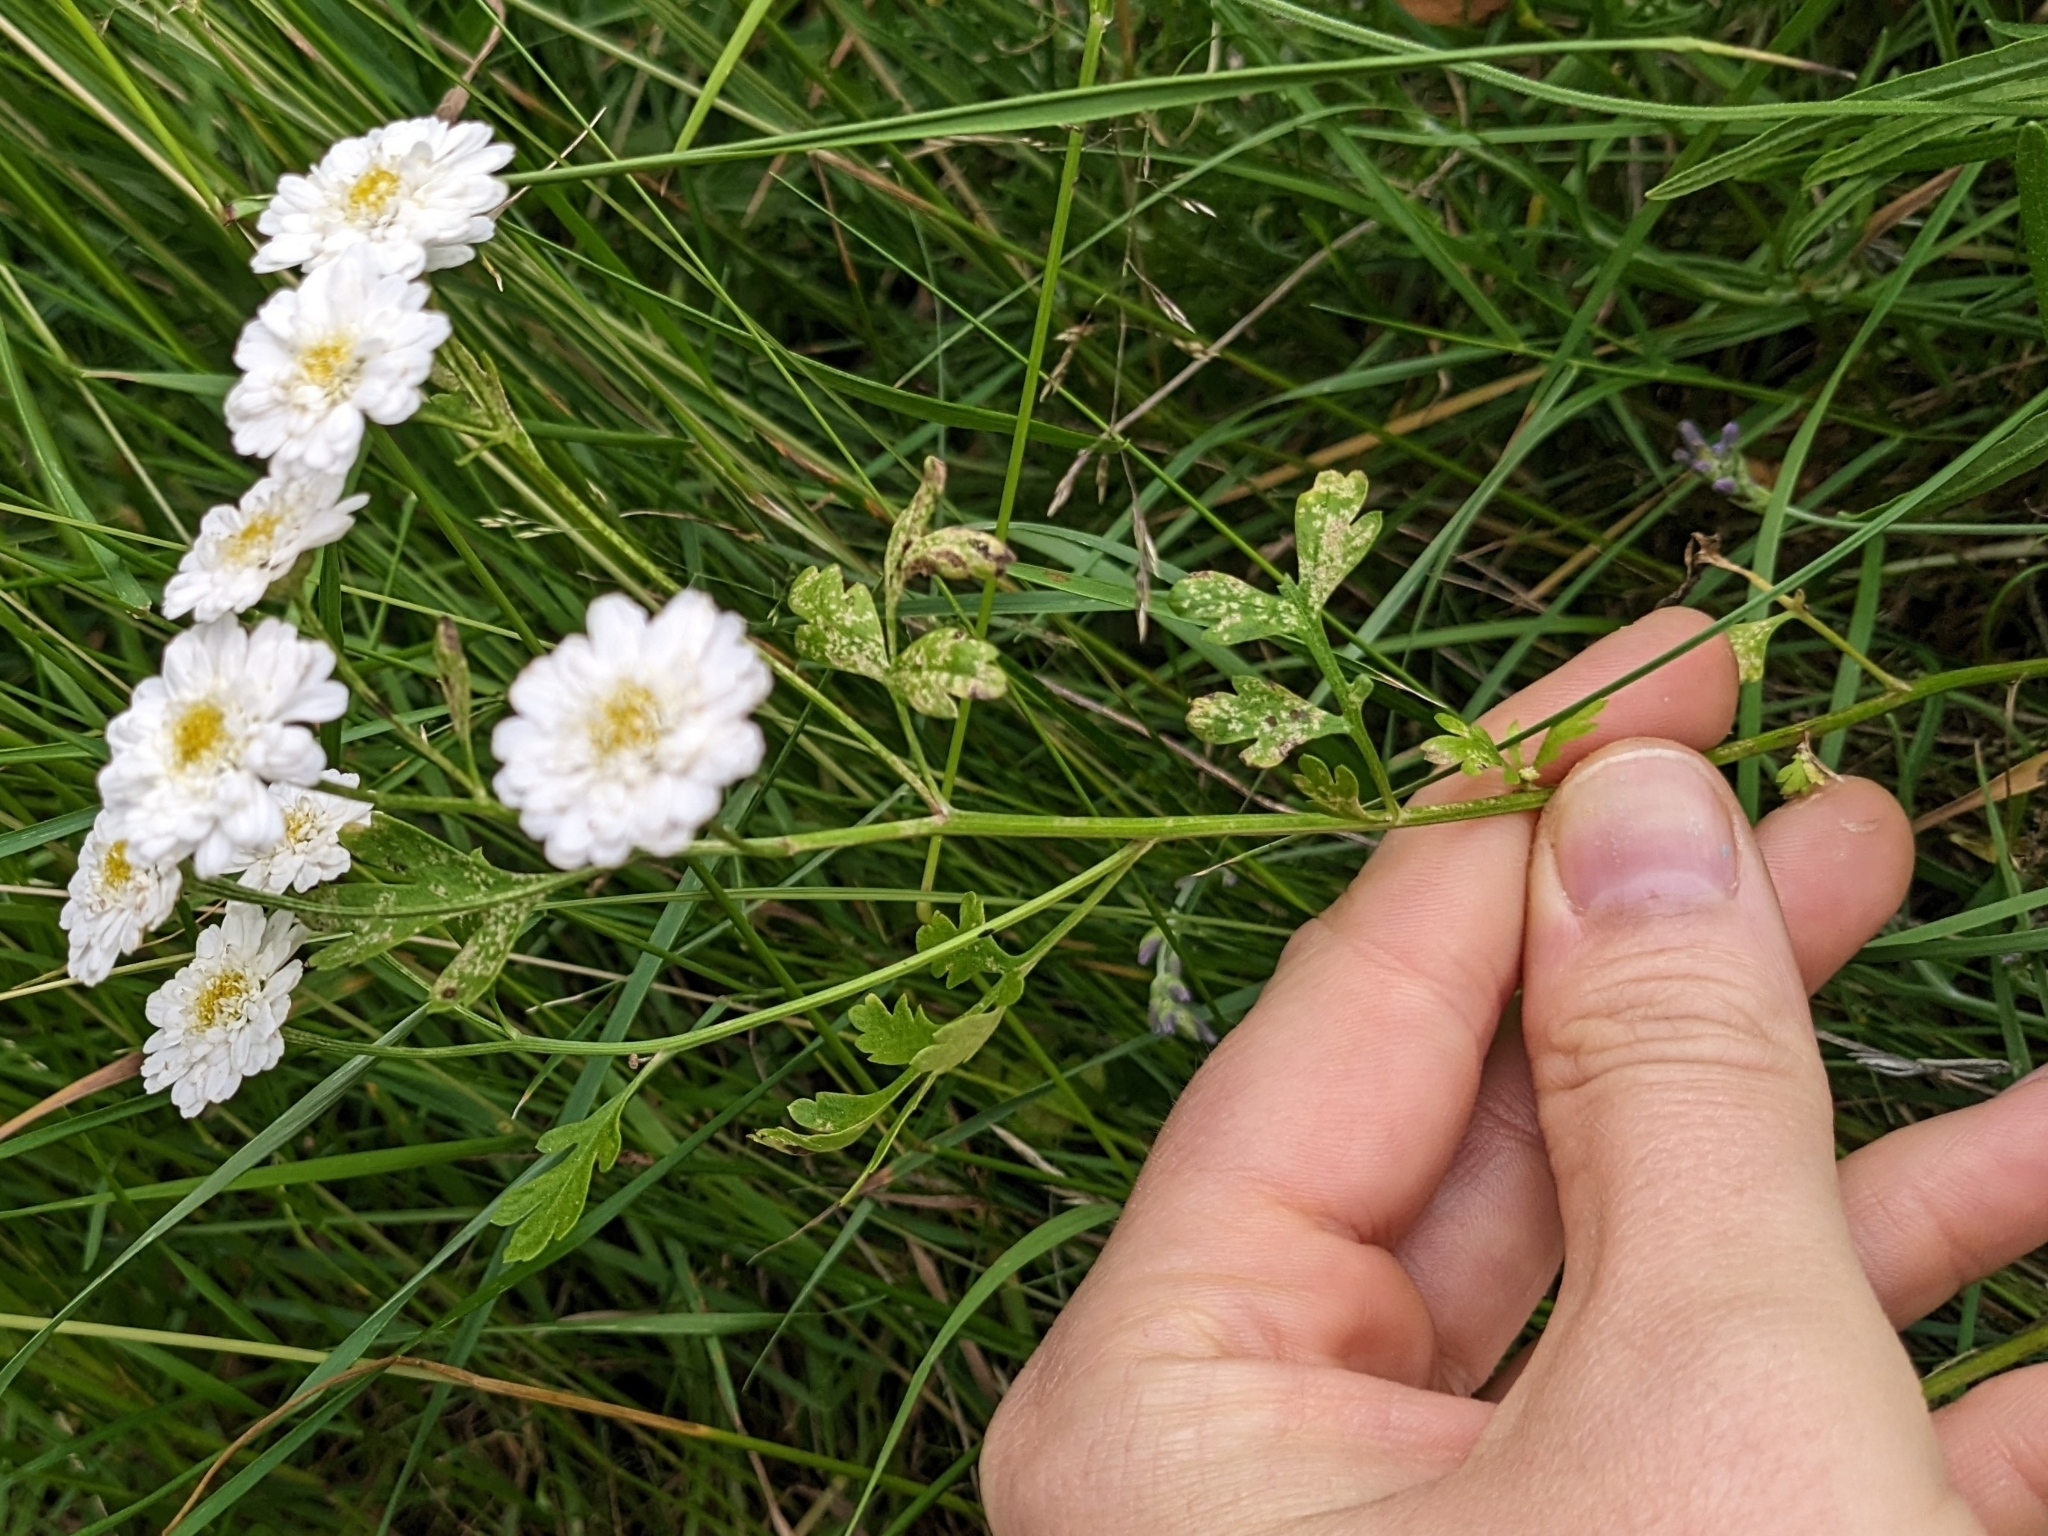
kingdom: Plantae
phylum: Tracheophyta
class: Magnoliopsida
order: Asterales
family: Asteraceae
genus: Tanacetum
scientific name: Tanacetum parthenium
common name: Feverfew
